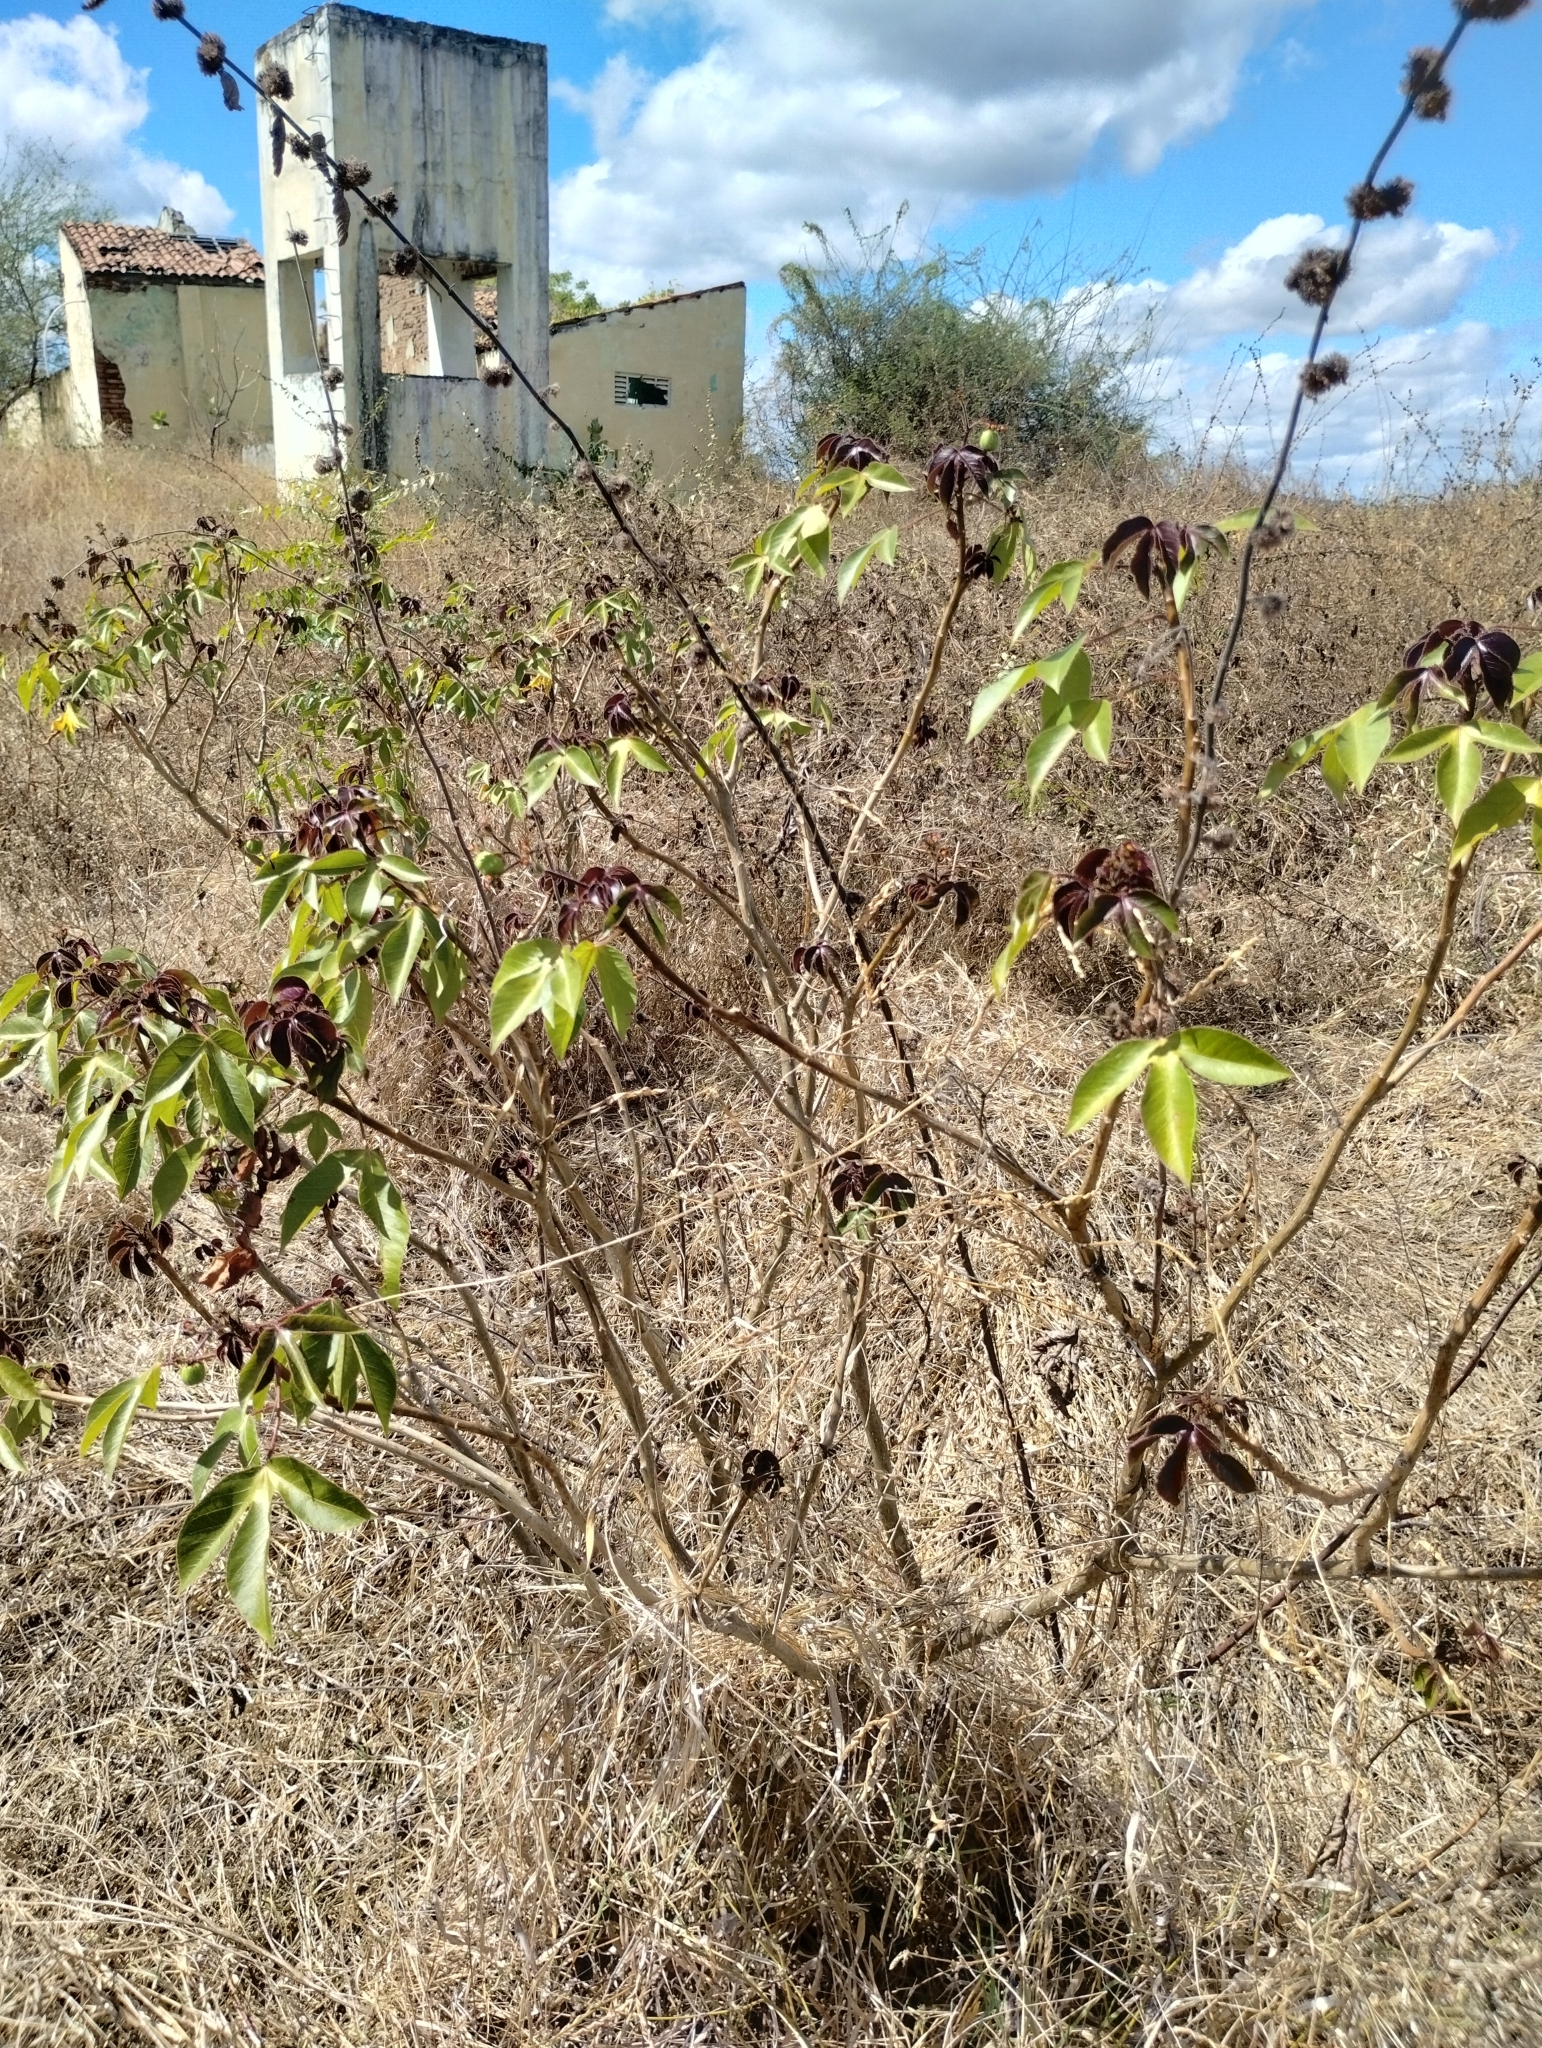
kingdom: Plantae
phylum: Tracheophyta
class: Magnoliopsida
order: Malpighiales
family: Euphorbiaceae
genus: Jatropha
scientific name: Jatropha gossypiifolia
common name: Bellyache bush
